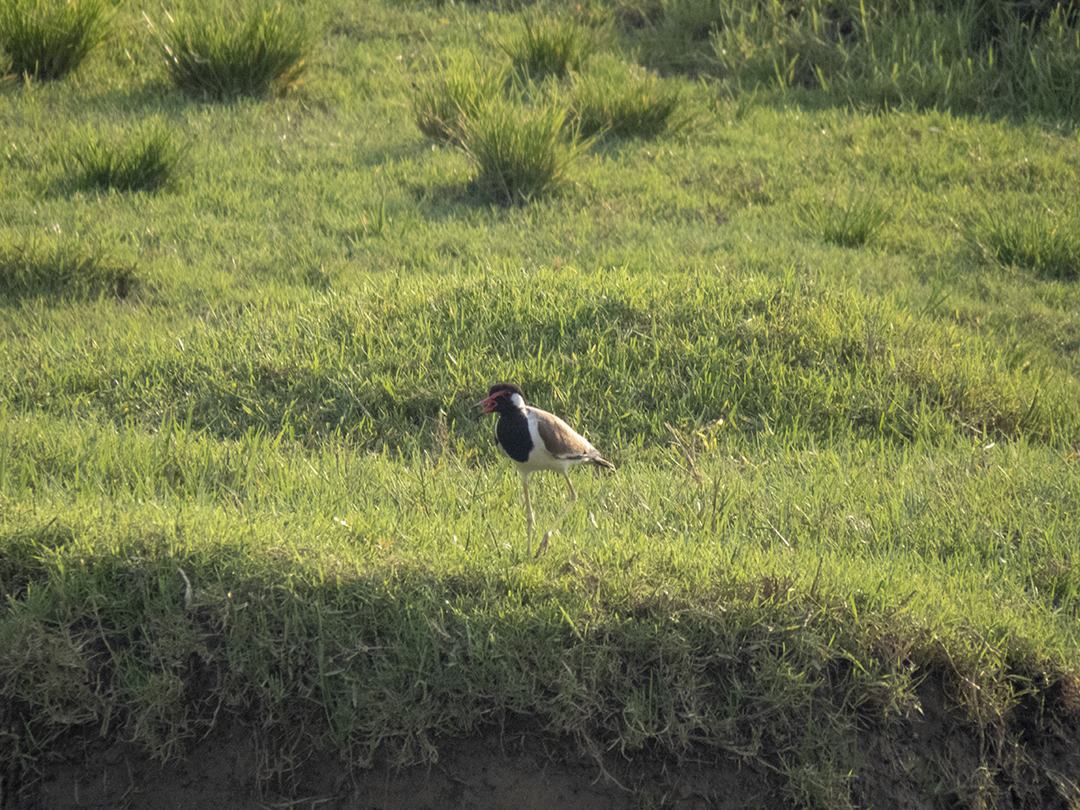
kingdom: Animalia
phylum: Chordata
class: Aves
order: Charadriiformes
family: Charadriidae
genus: Vanellus
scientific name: Vanellus indicus
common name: Red-wattled lapwing
